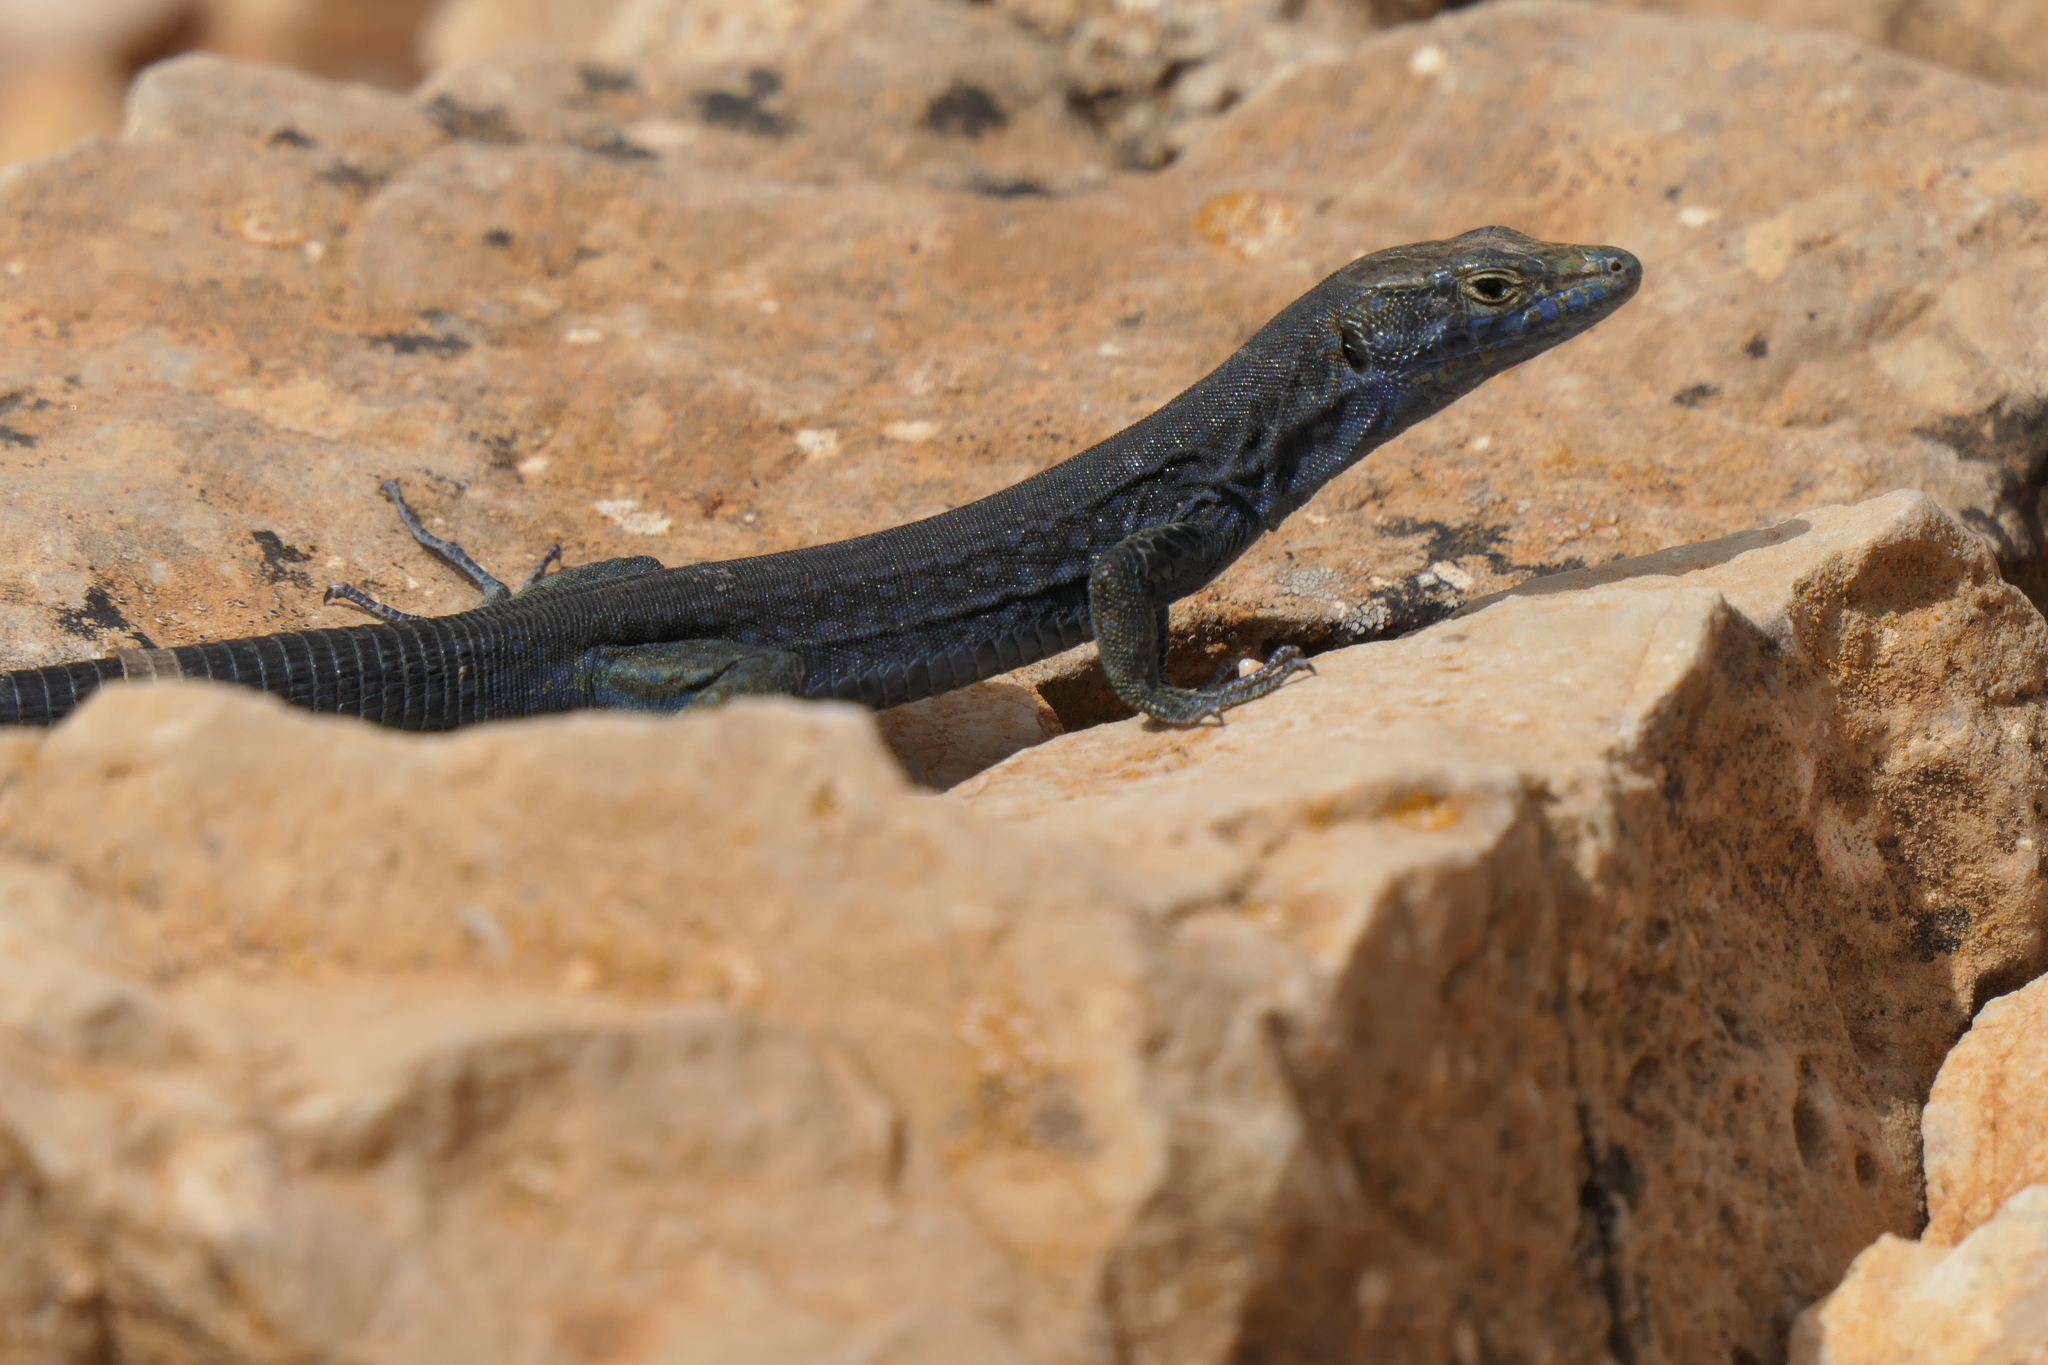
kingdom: Animalia
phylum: Chordata
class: Squamata
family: Lacertidae
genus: Podarcis
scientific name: Podarcis lilfordi
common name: Belearic lizard
